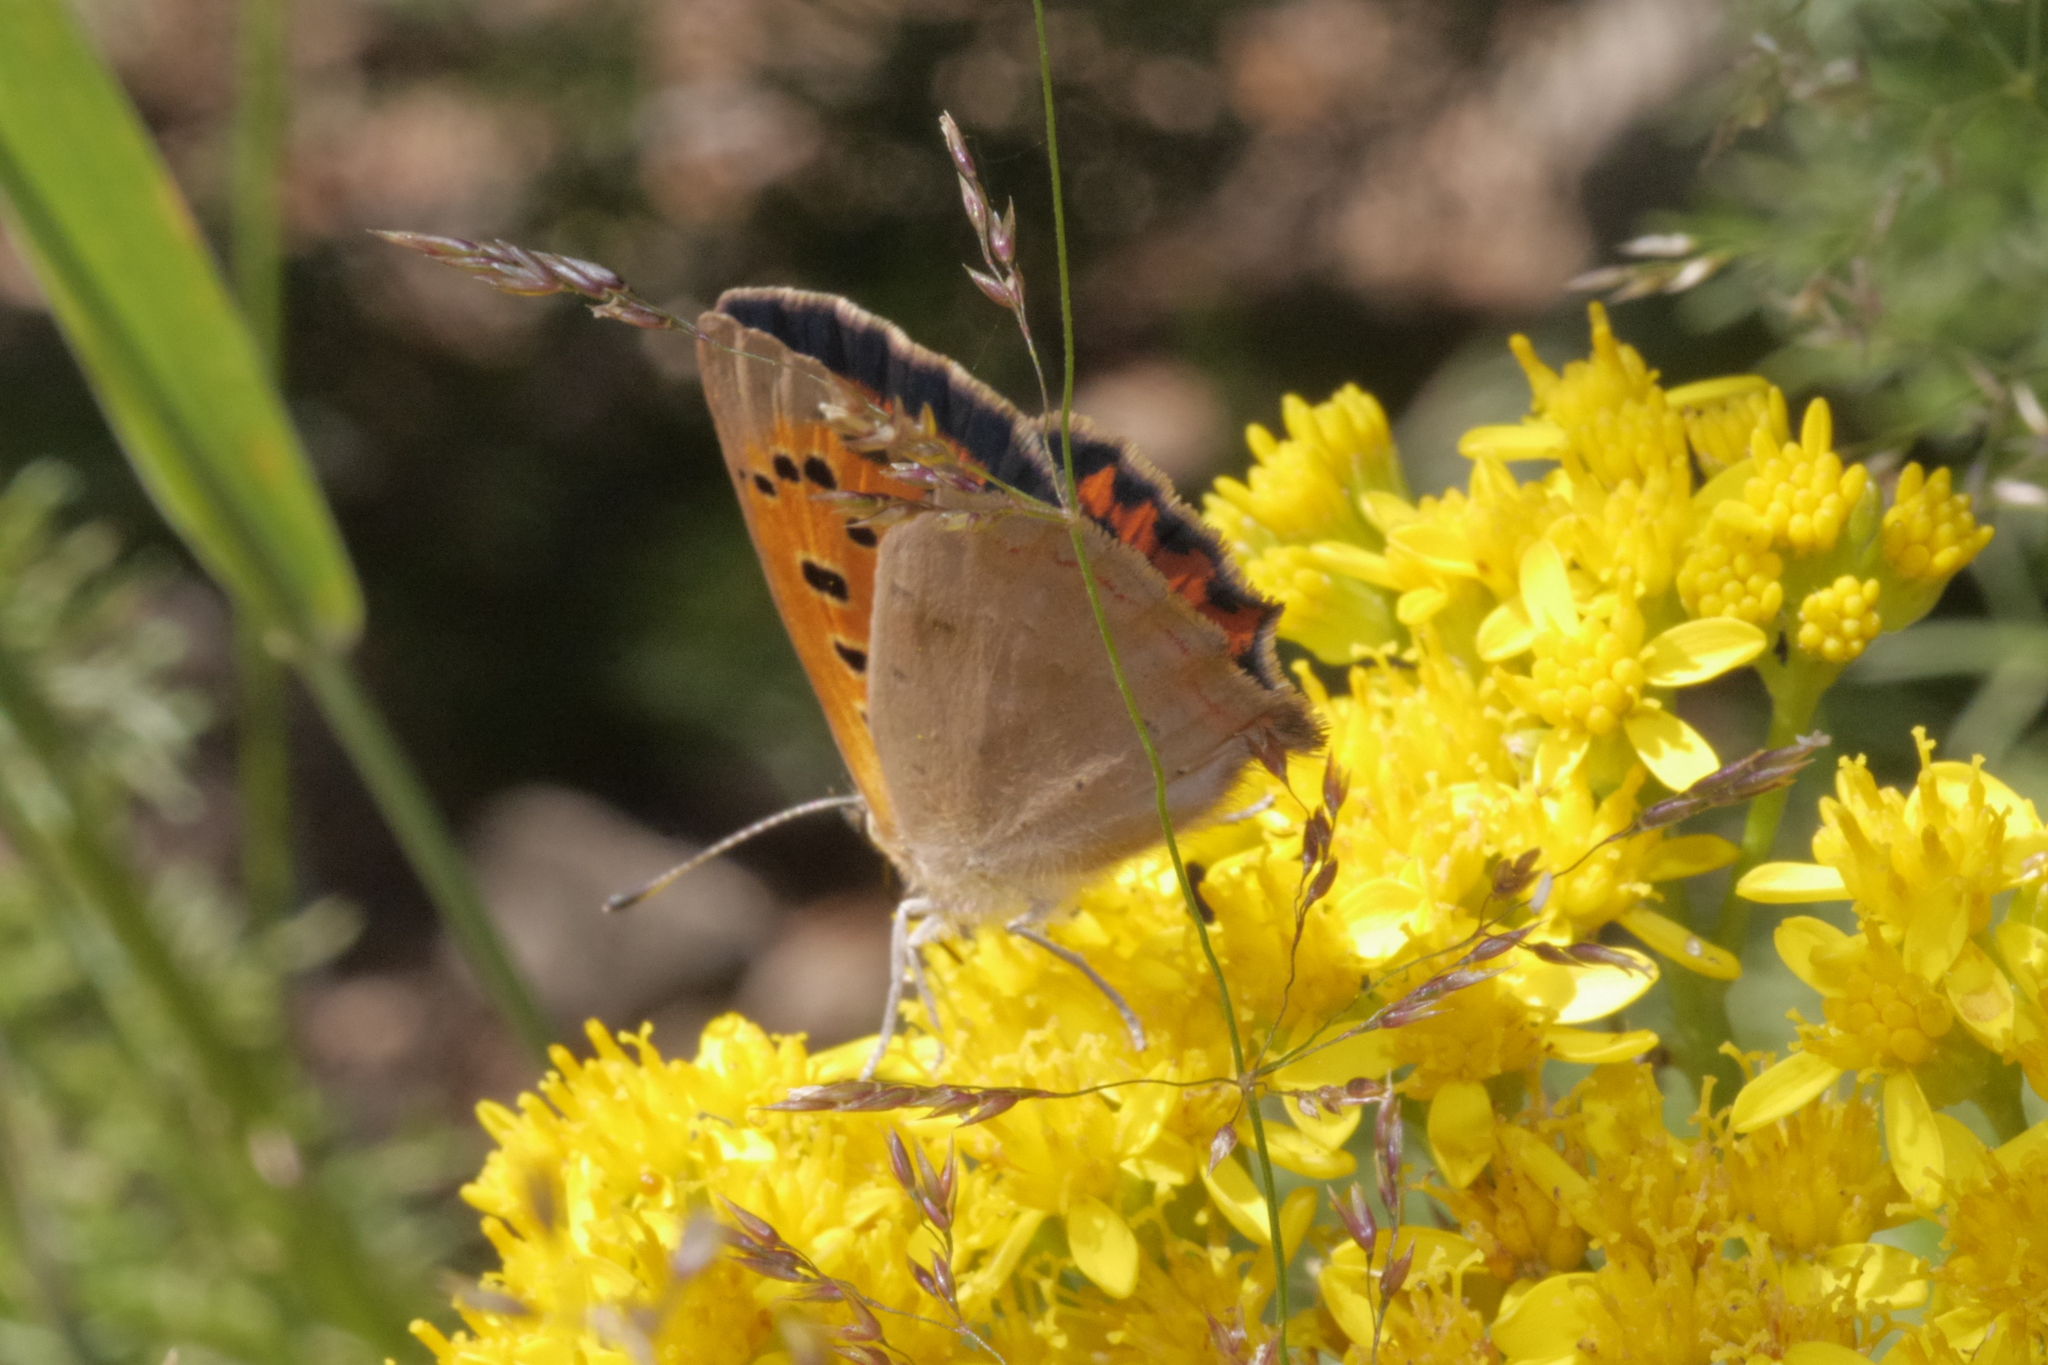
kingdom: Animalia
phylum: Arthropoda
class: Insecta
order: Lepidoptera
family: Lycaenidae
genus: Lycaena
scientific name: Lycaena phlaeas
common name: Small copper
